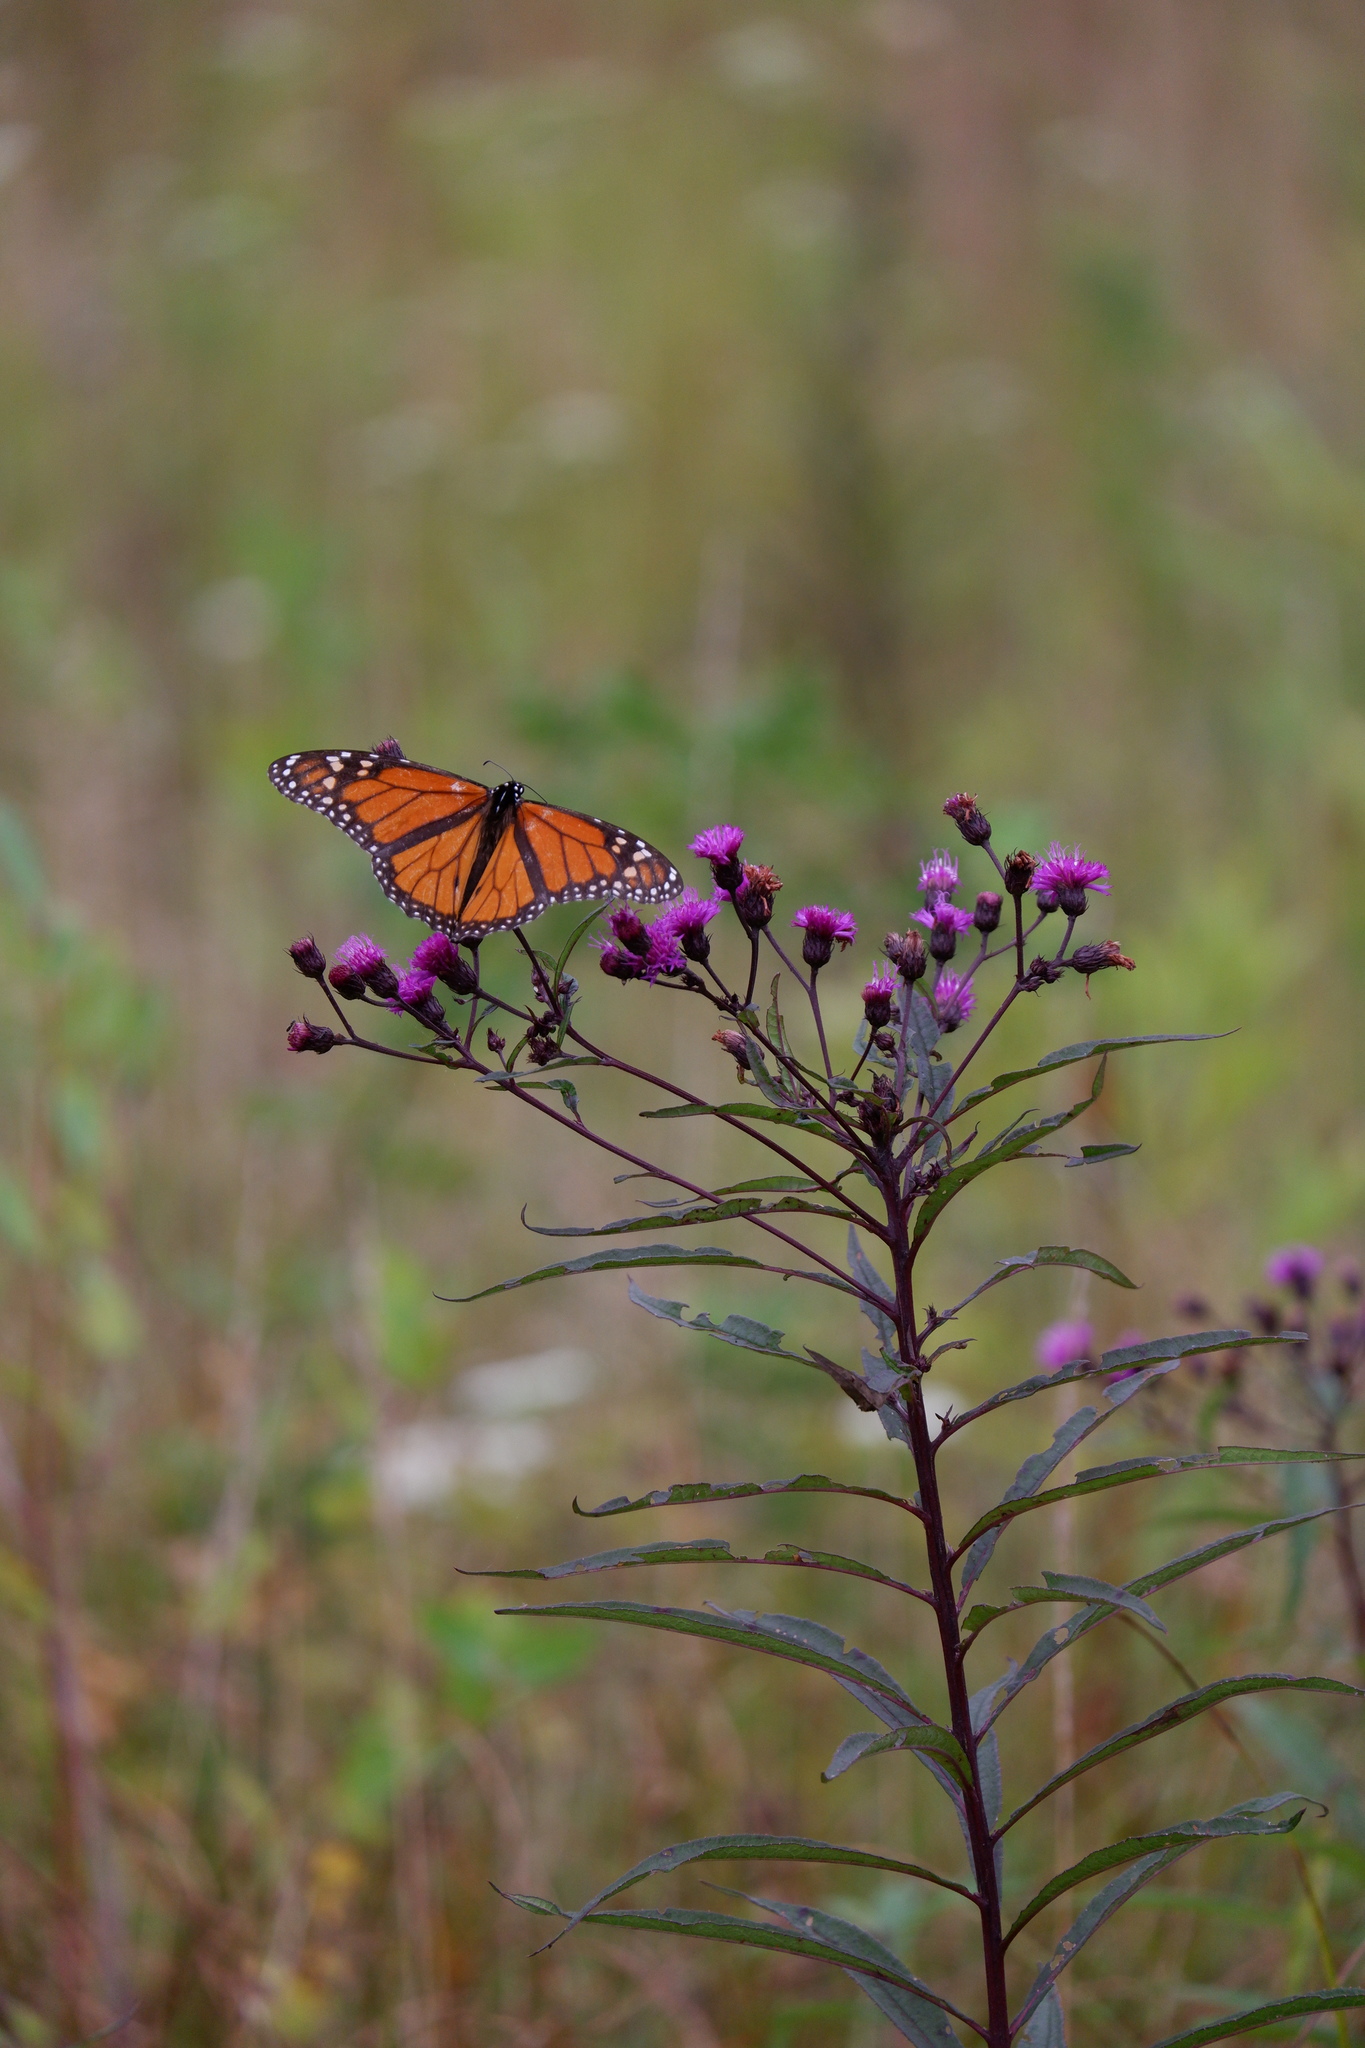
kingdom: Animalia
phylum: Arthropoda
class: Insecta
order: Lepidoptera
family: Nymphalidae
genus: Danaus
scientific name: Danaus plexippus
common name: Monarch
